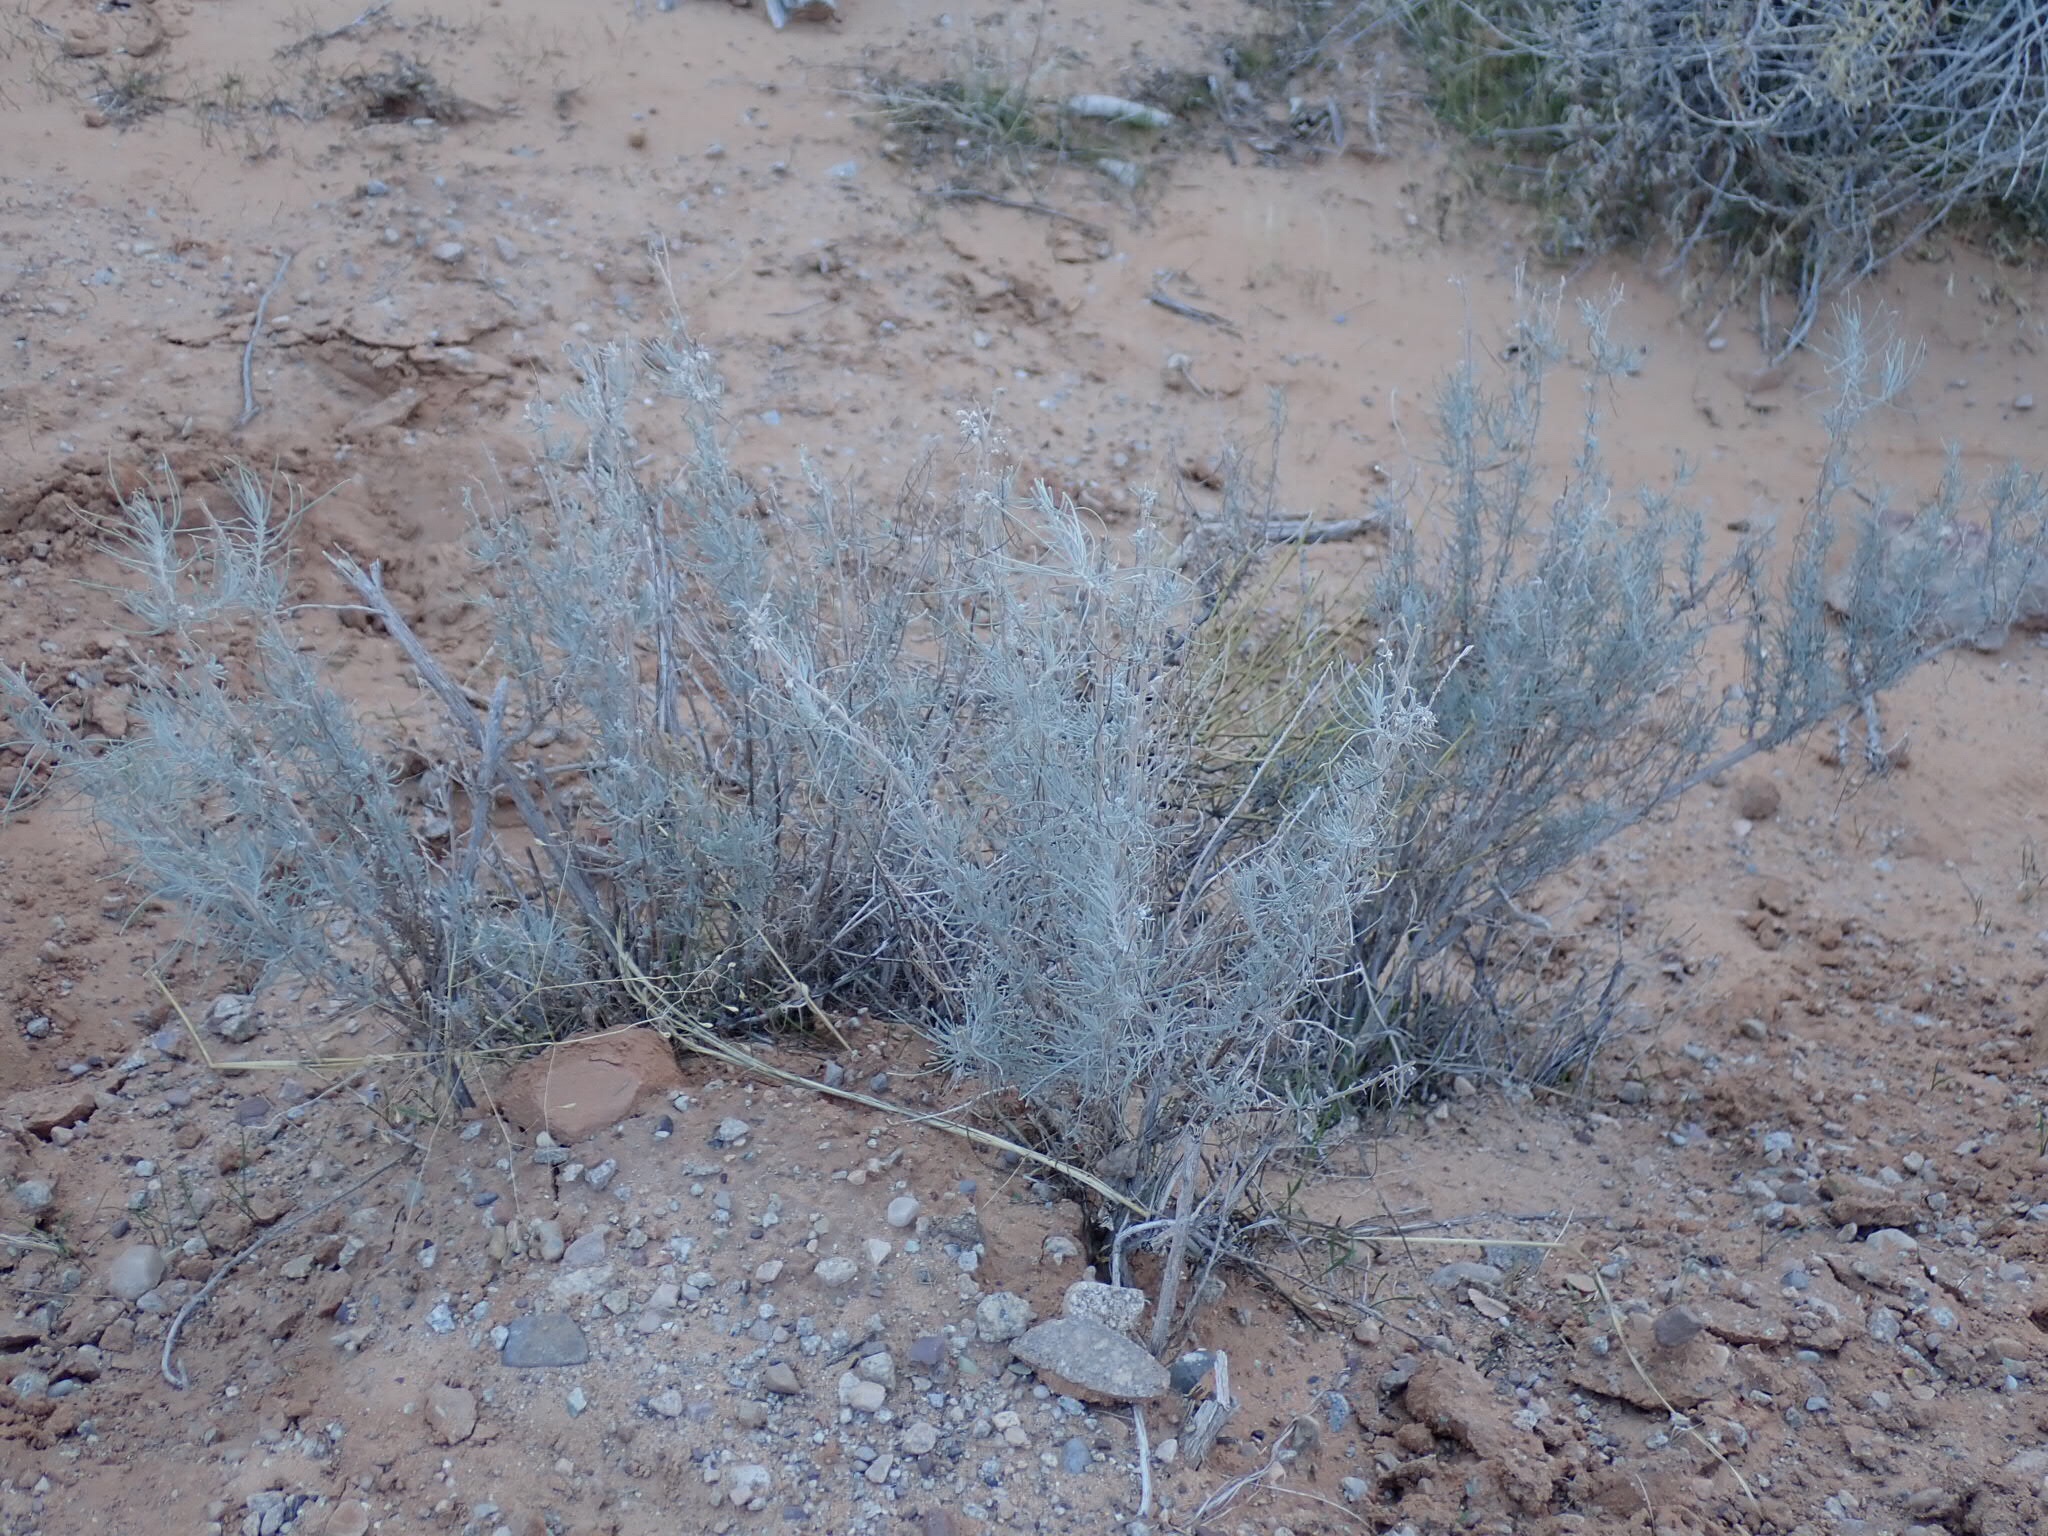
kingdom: Plantae
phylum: Tracheophyta
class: Magnoliopsida
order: Asterales
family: Asteraceae
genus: Artemisia
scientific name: Artemisia filifolia
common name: Sand-sage
